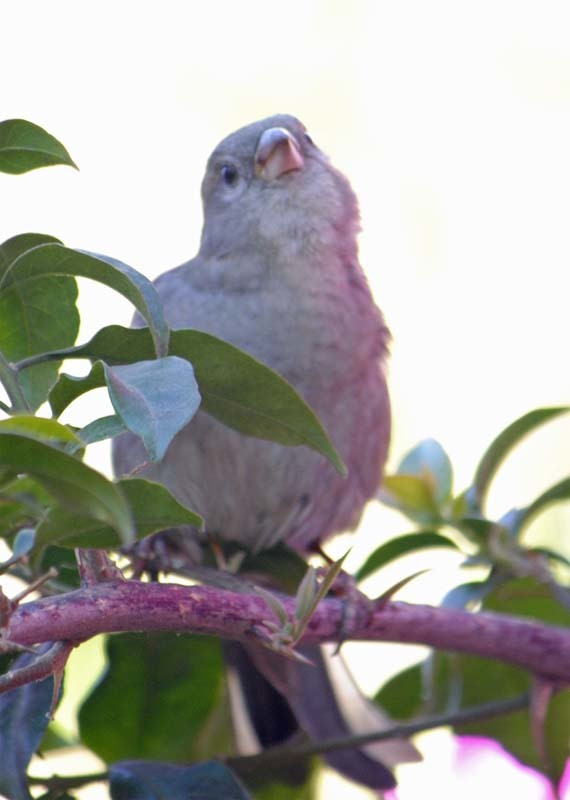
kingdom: Animalia
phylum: Chordata
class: Aves
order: Passeriformes
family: Passeridae
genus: Passer
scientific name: Passer domesticus
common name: House sparrow
